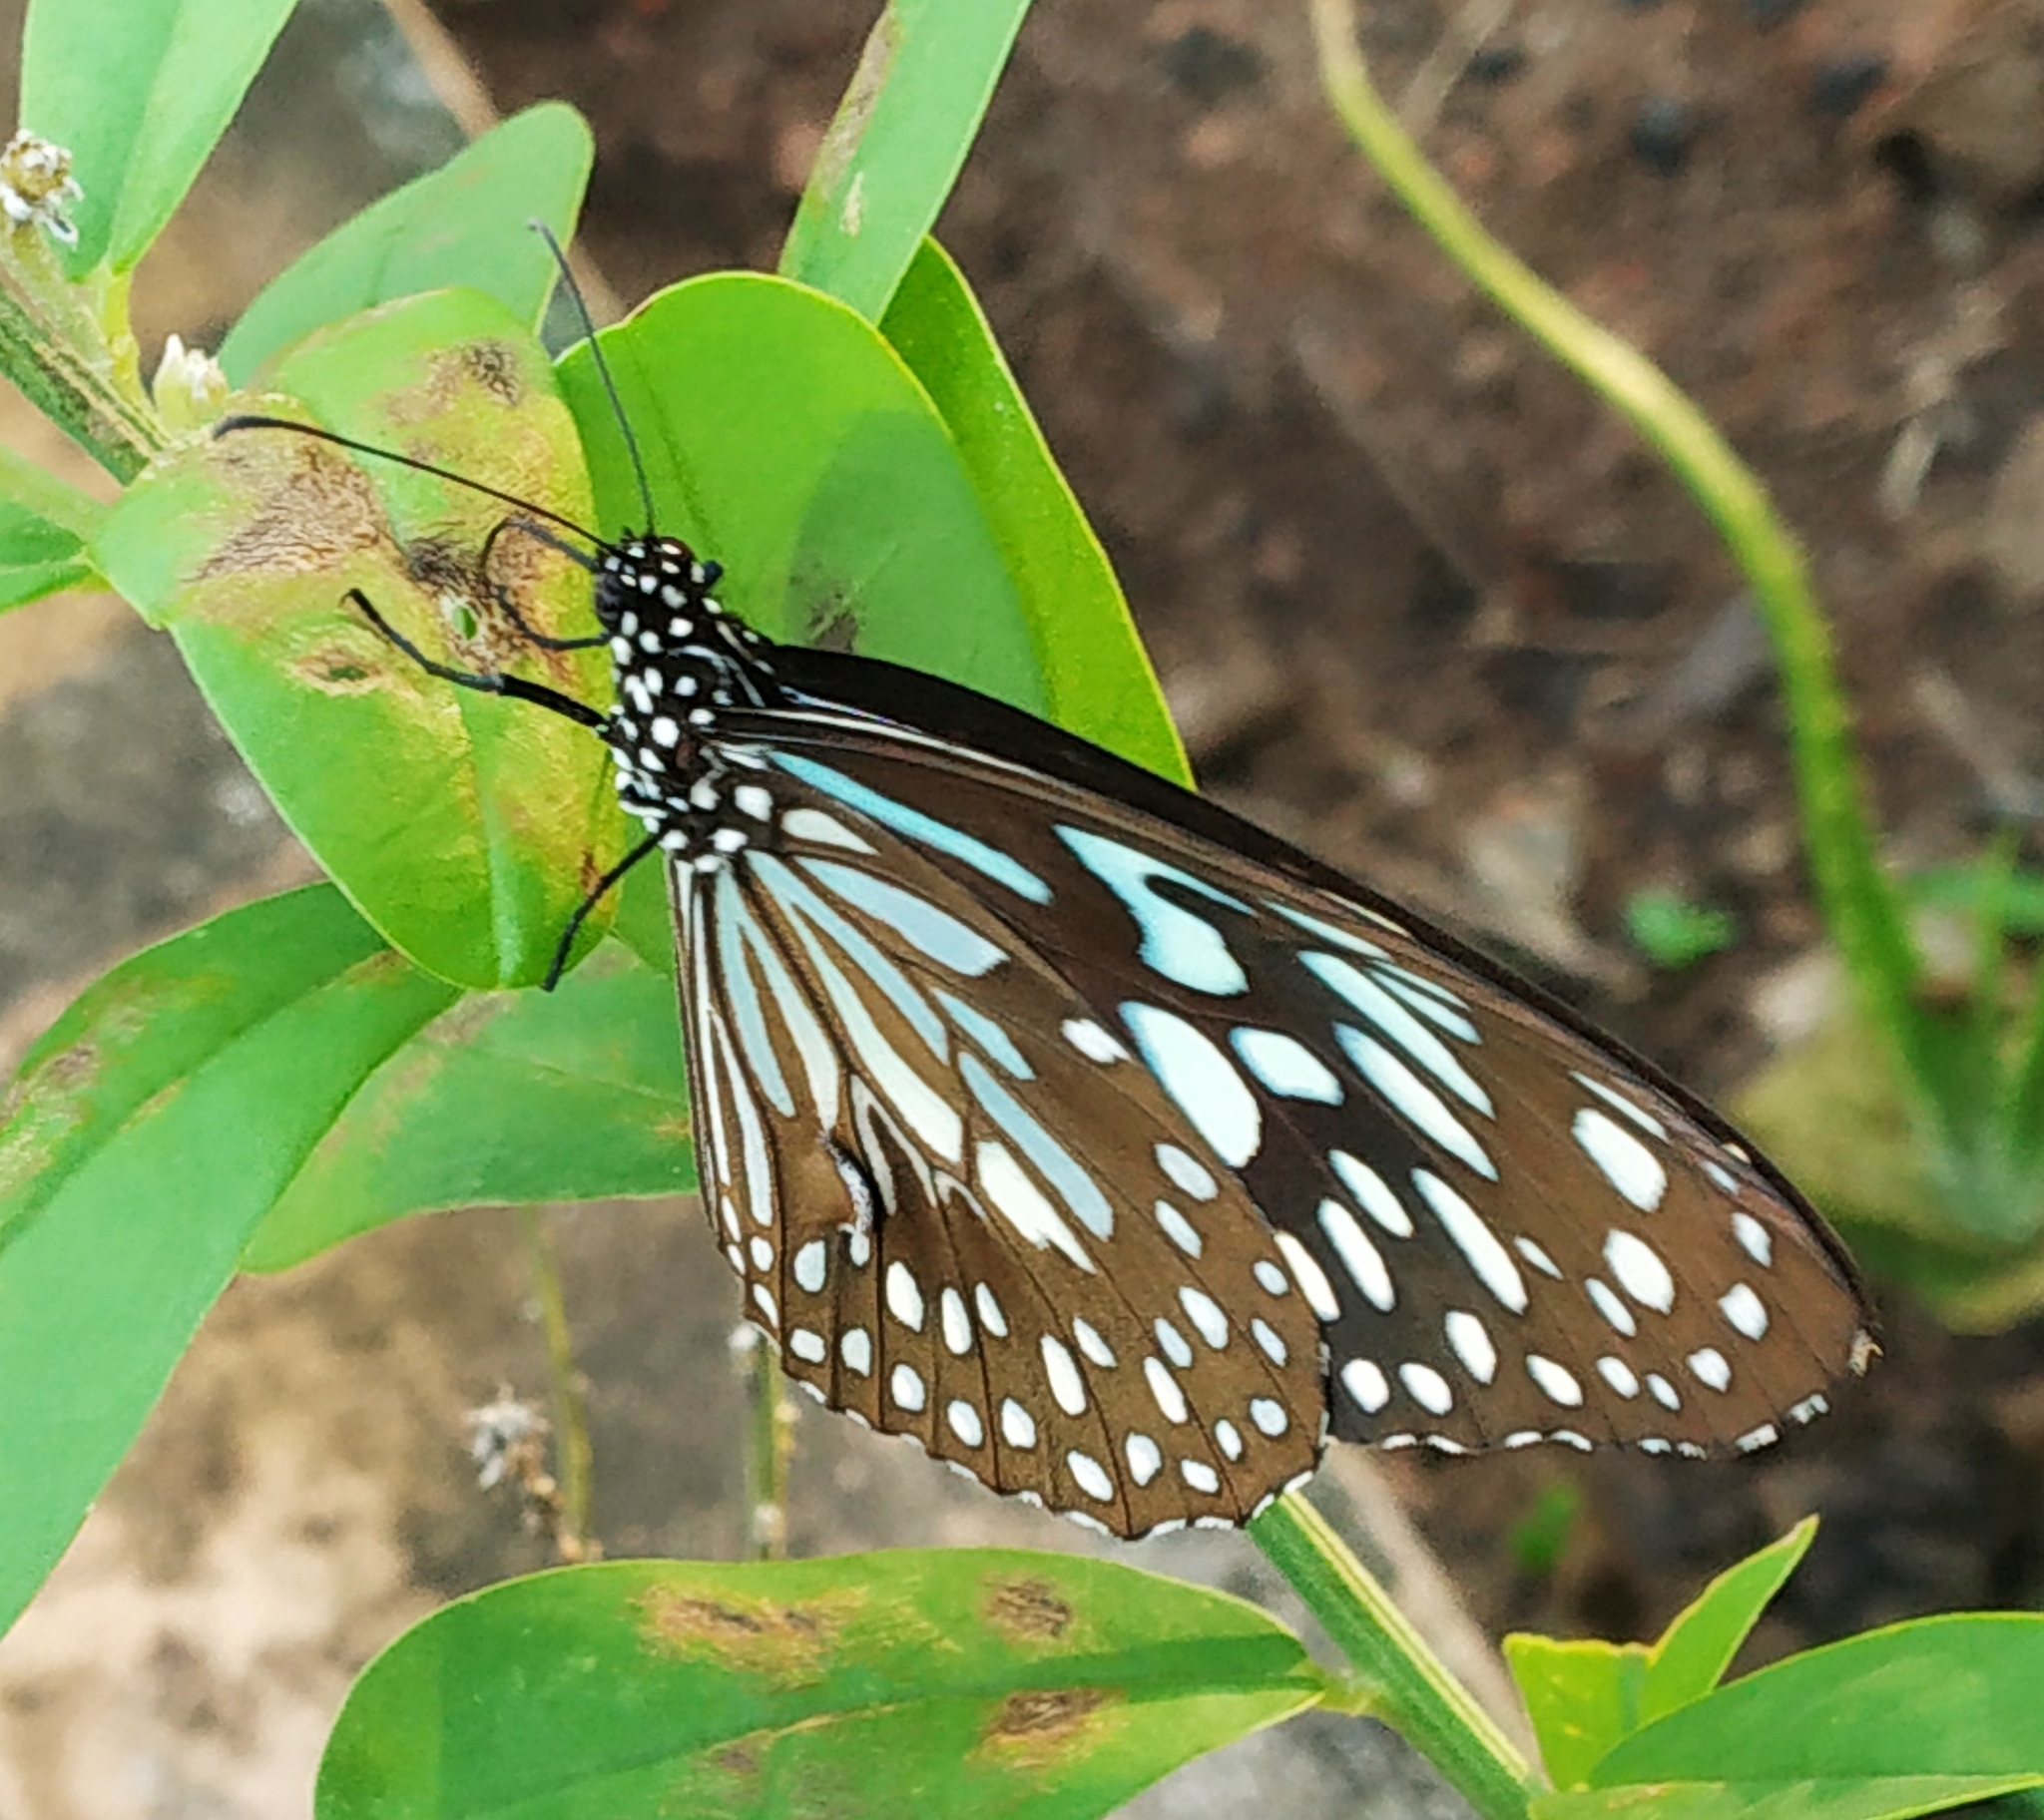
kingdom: Animalia
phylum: Arthropoda
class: Insecta
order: Lepidoptera
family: Nymphalidae
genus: Tirumala
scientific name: Tirumala septentrionis
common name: Dark blue tiger butterfly
